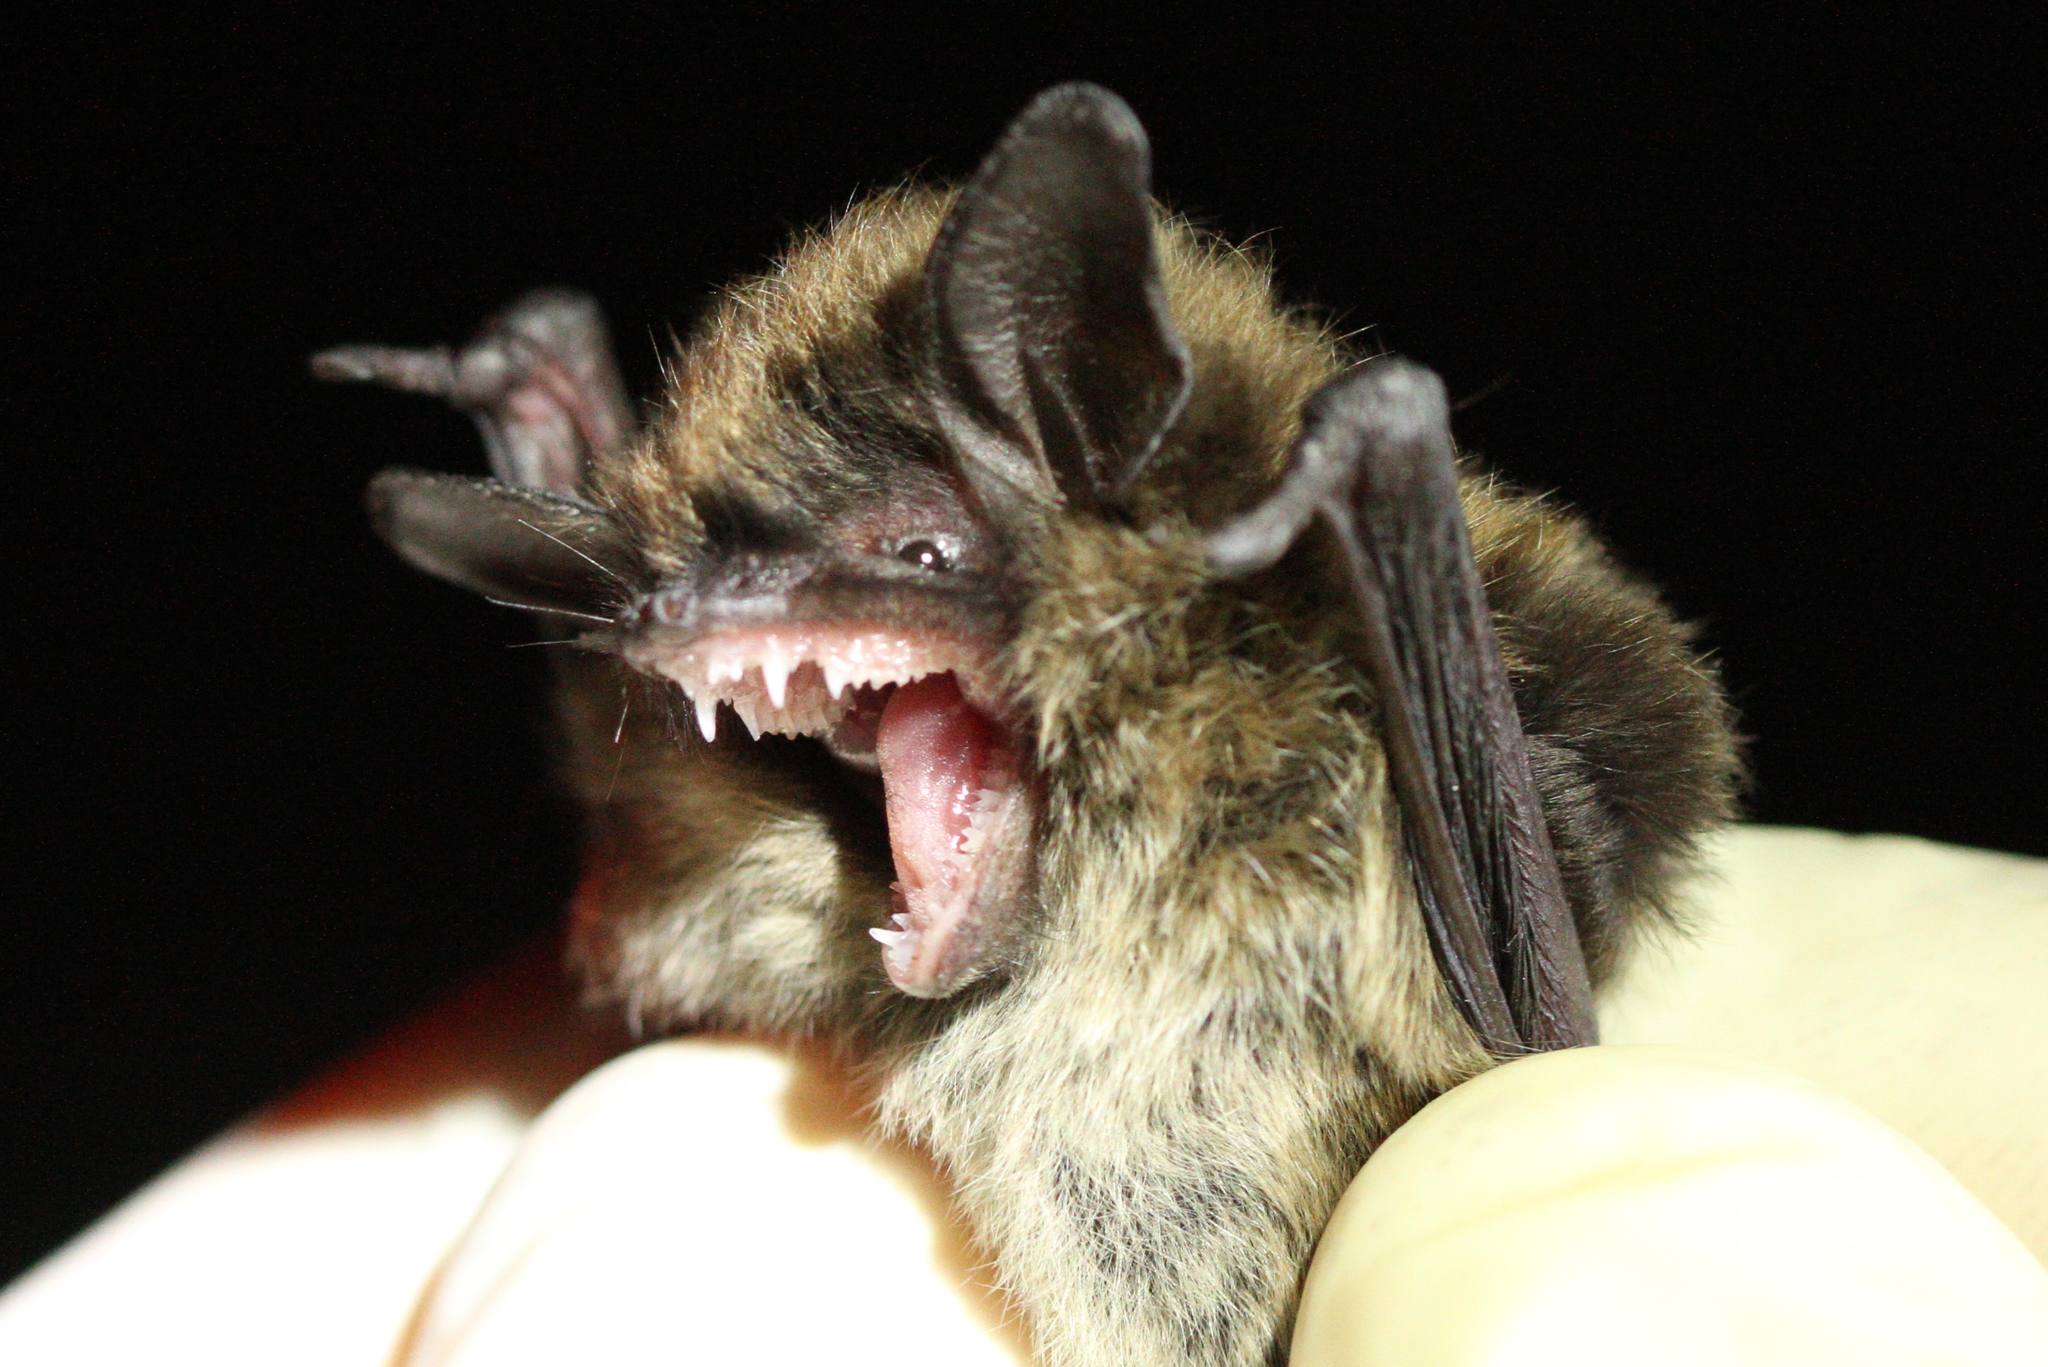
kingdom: Animalia
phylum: Chordata
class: Mammalia
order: Chiroptera
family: Vespertilionidae
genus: Myotis
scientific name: Myotis mystacinus
